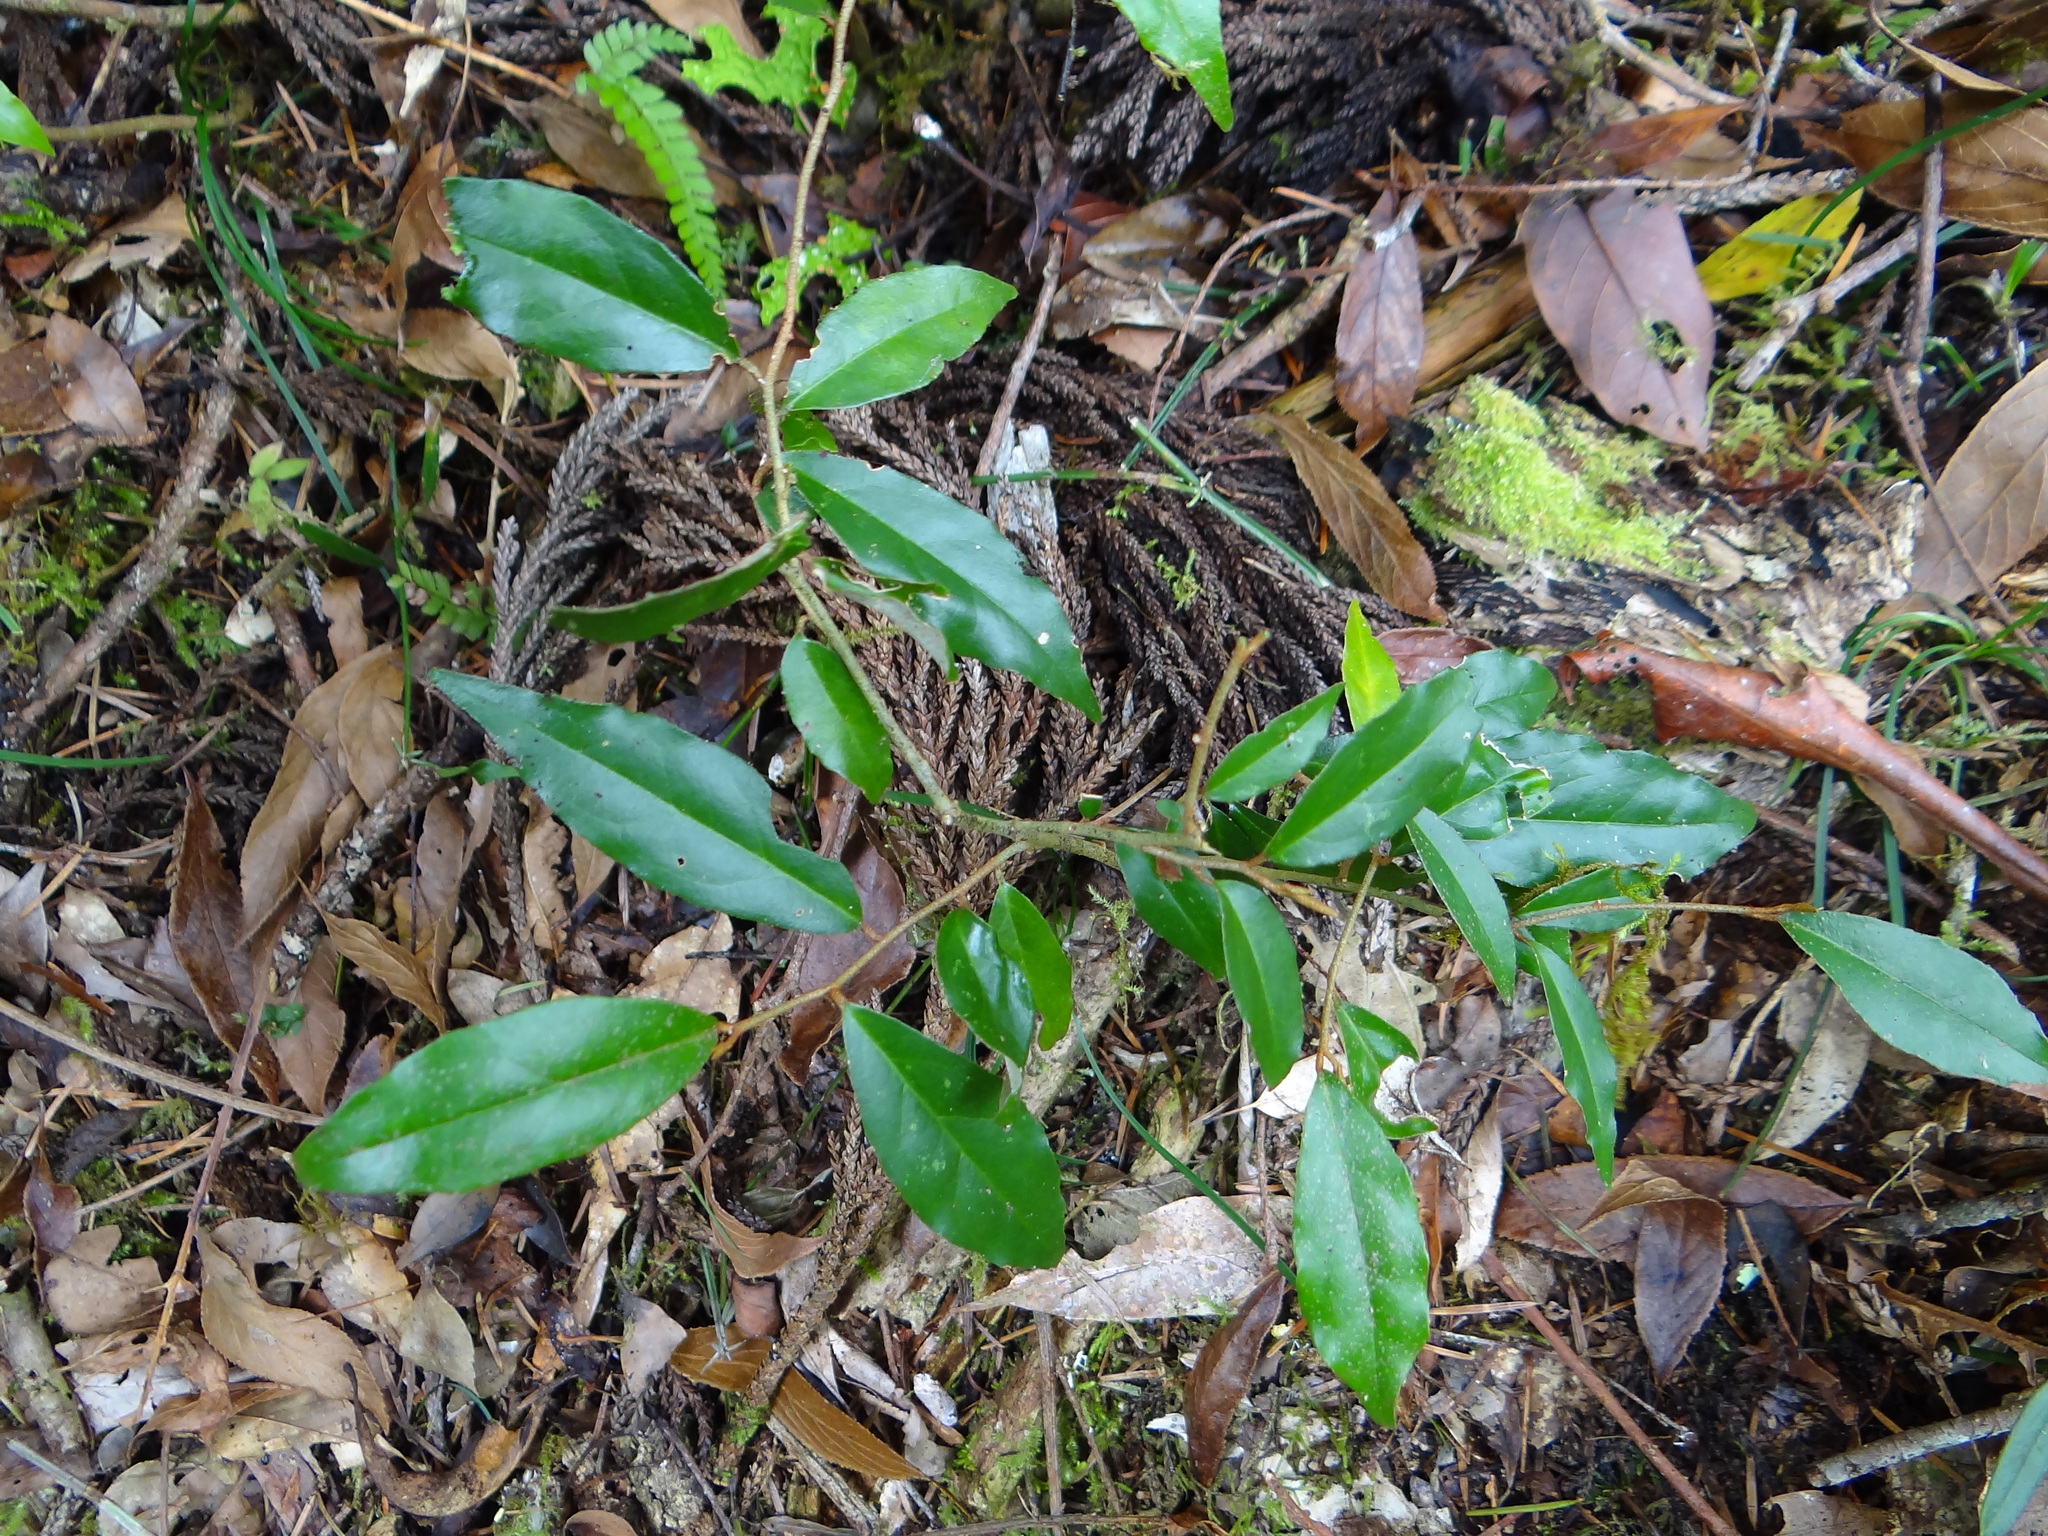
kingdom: Plantae
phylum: Tracheophyta
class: Magnoliopsida
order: Rosales
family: Elaeagnaceae
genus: Elaeagnus
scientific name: Elaeagnus thunbergii
